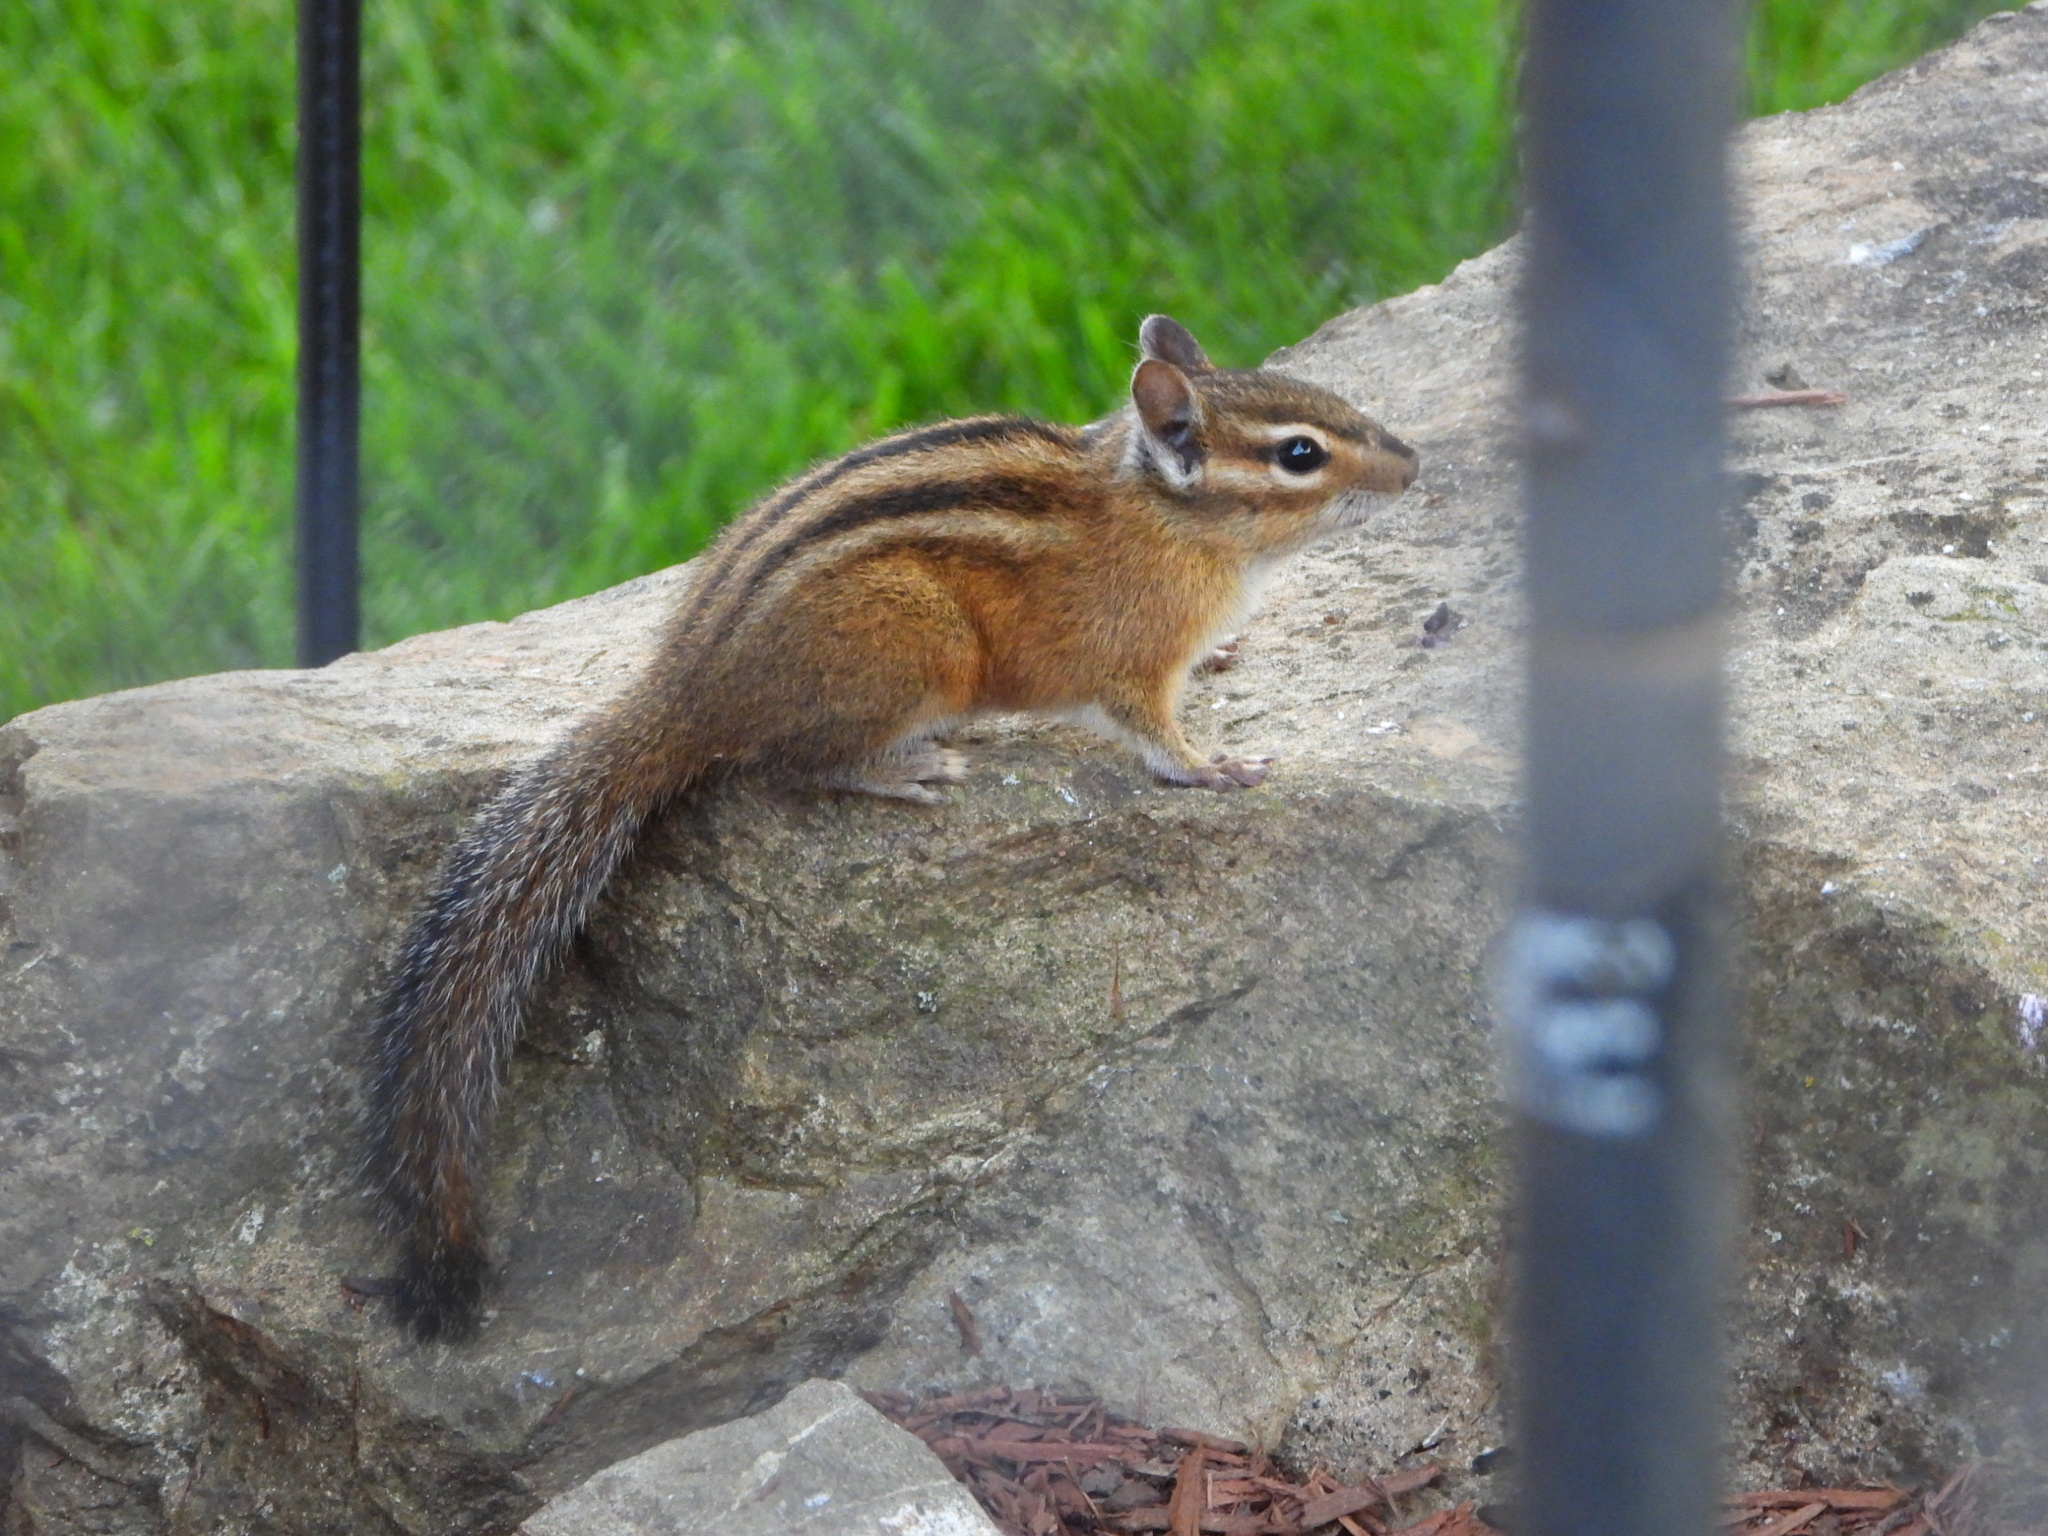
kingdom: Animalia
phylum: Chordata
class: Mammalia
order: Rodentia
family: Sciuridae
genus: Tamias
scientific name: Tamias townsendii
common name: Townsend's chipmunk
